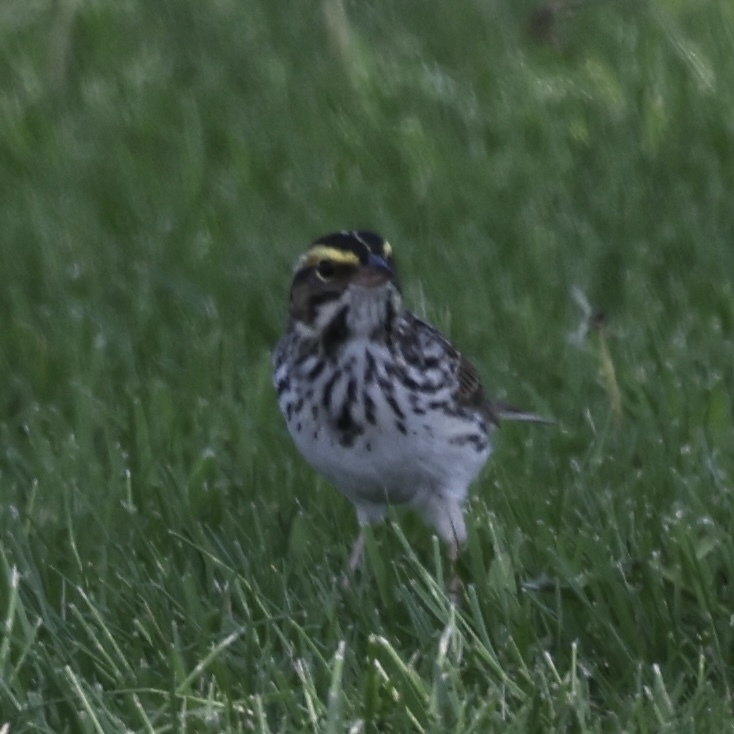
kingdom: Animalia
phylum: Chordata
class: Aves
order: Passeriformes
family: Passerellidae
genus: Passerculus
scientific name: Passerculus sandwichensis
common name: Savannah sparrow
